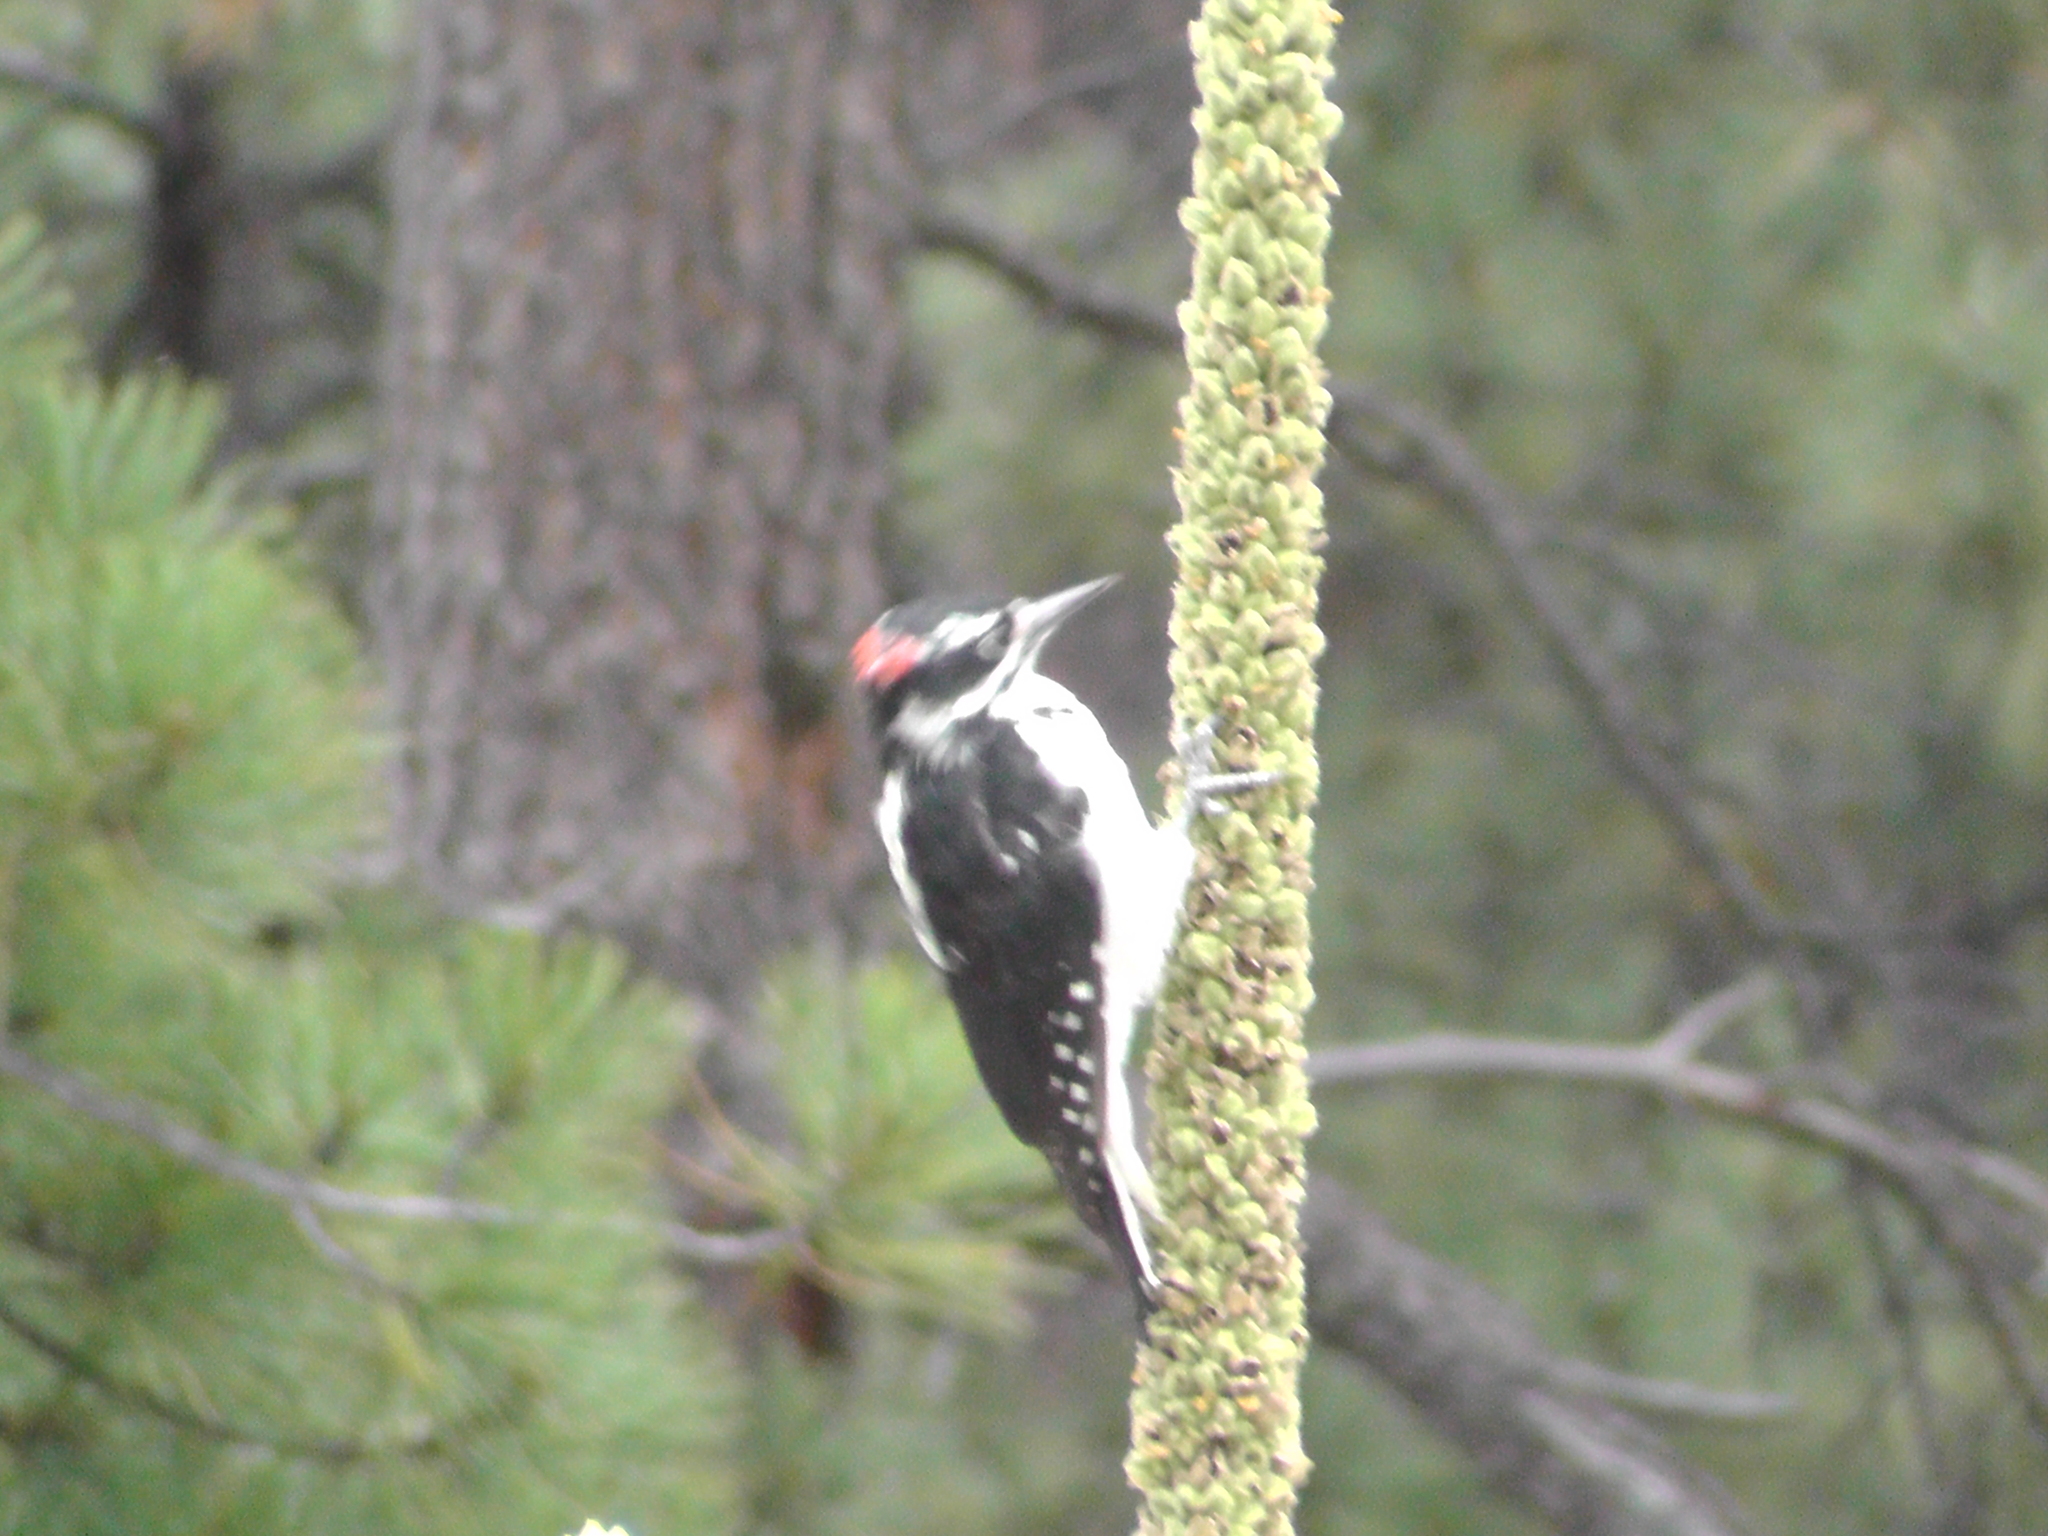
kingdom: Animalia
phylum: Chordata
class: Aves
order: Piciformes
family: Picidae
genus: Leuconotopicus
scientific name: Leuconotopicus villosus
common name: Hairy woodpecker
